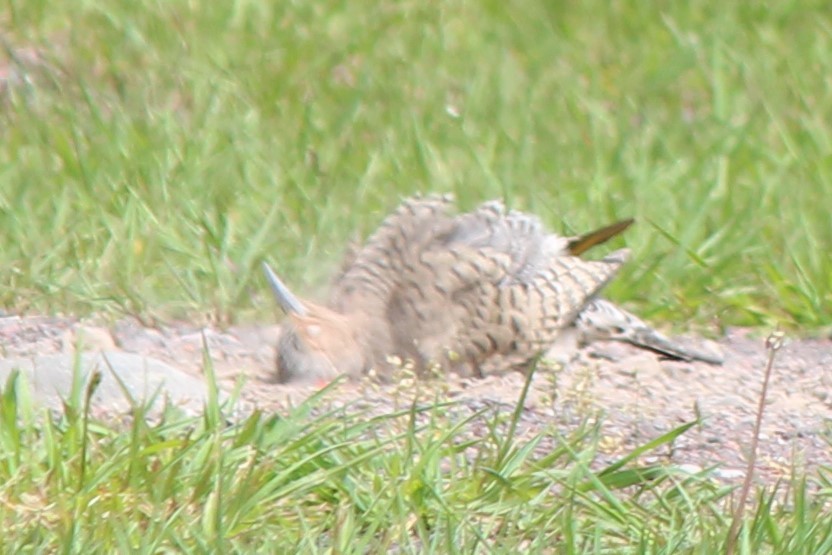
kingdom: Animalia
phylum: Chordata
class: Aves
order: Piciformes
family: Picidae
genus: Colaptes
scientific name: Colaptes auratus
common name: Northern flicker
